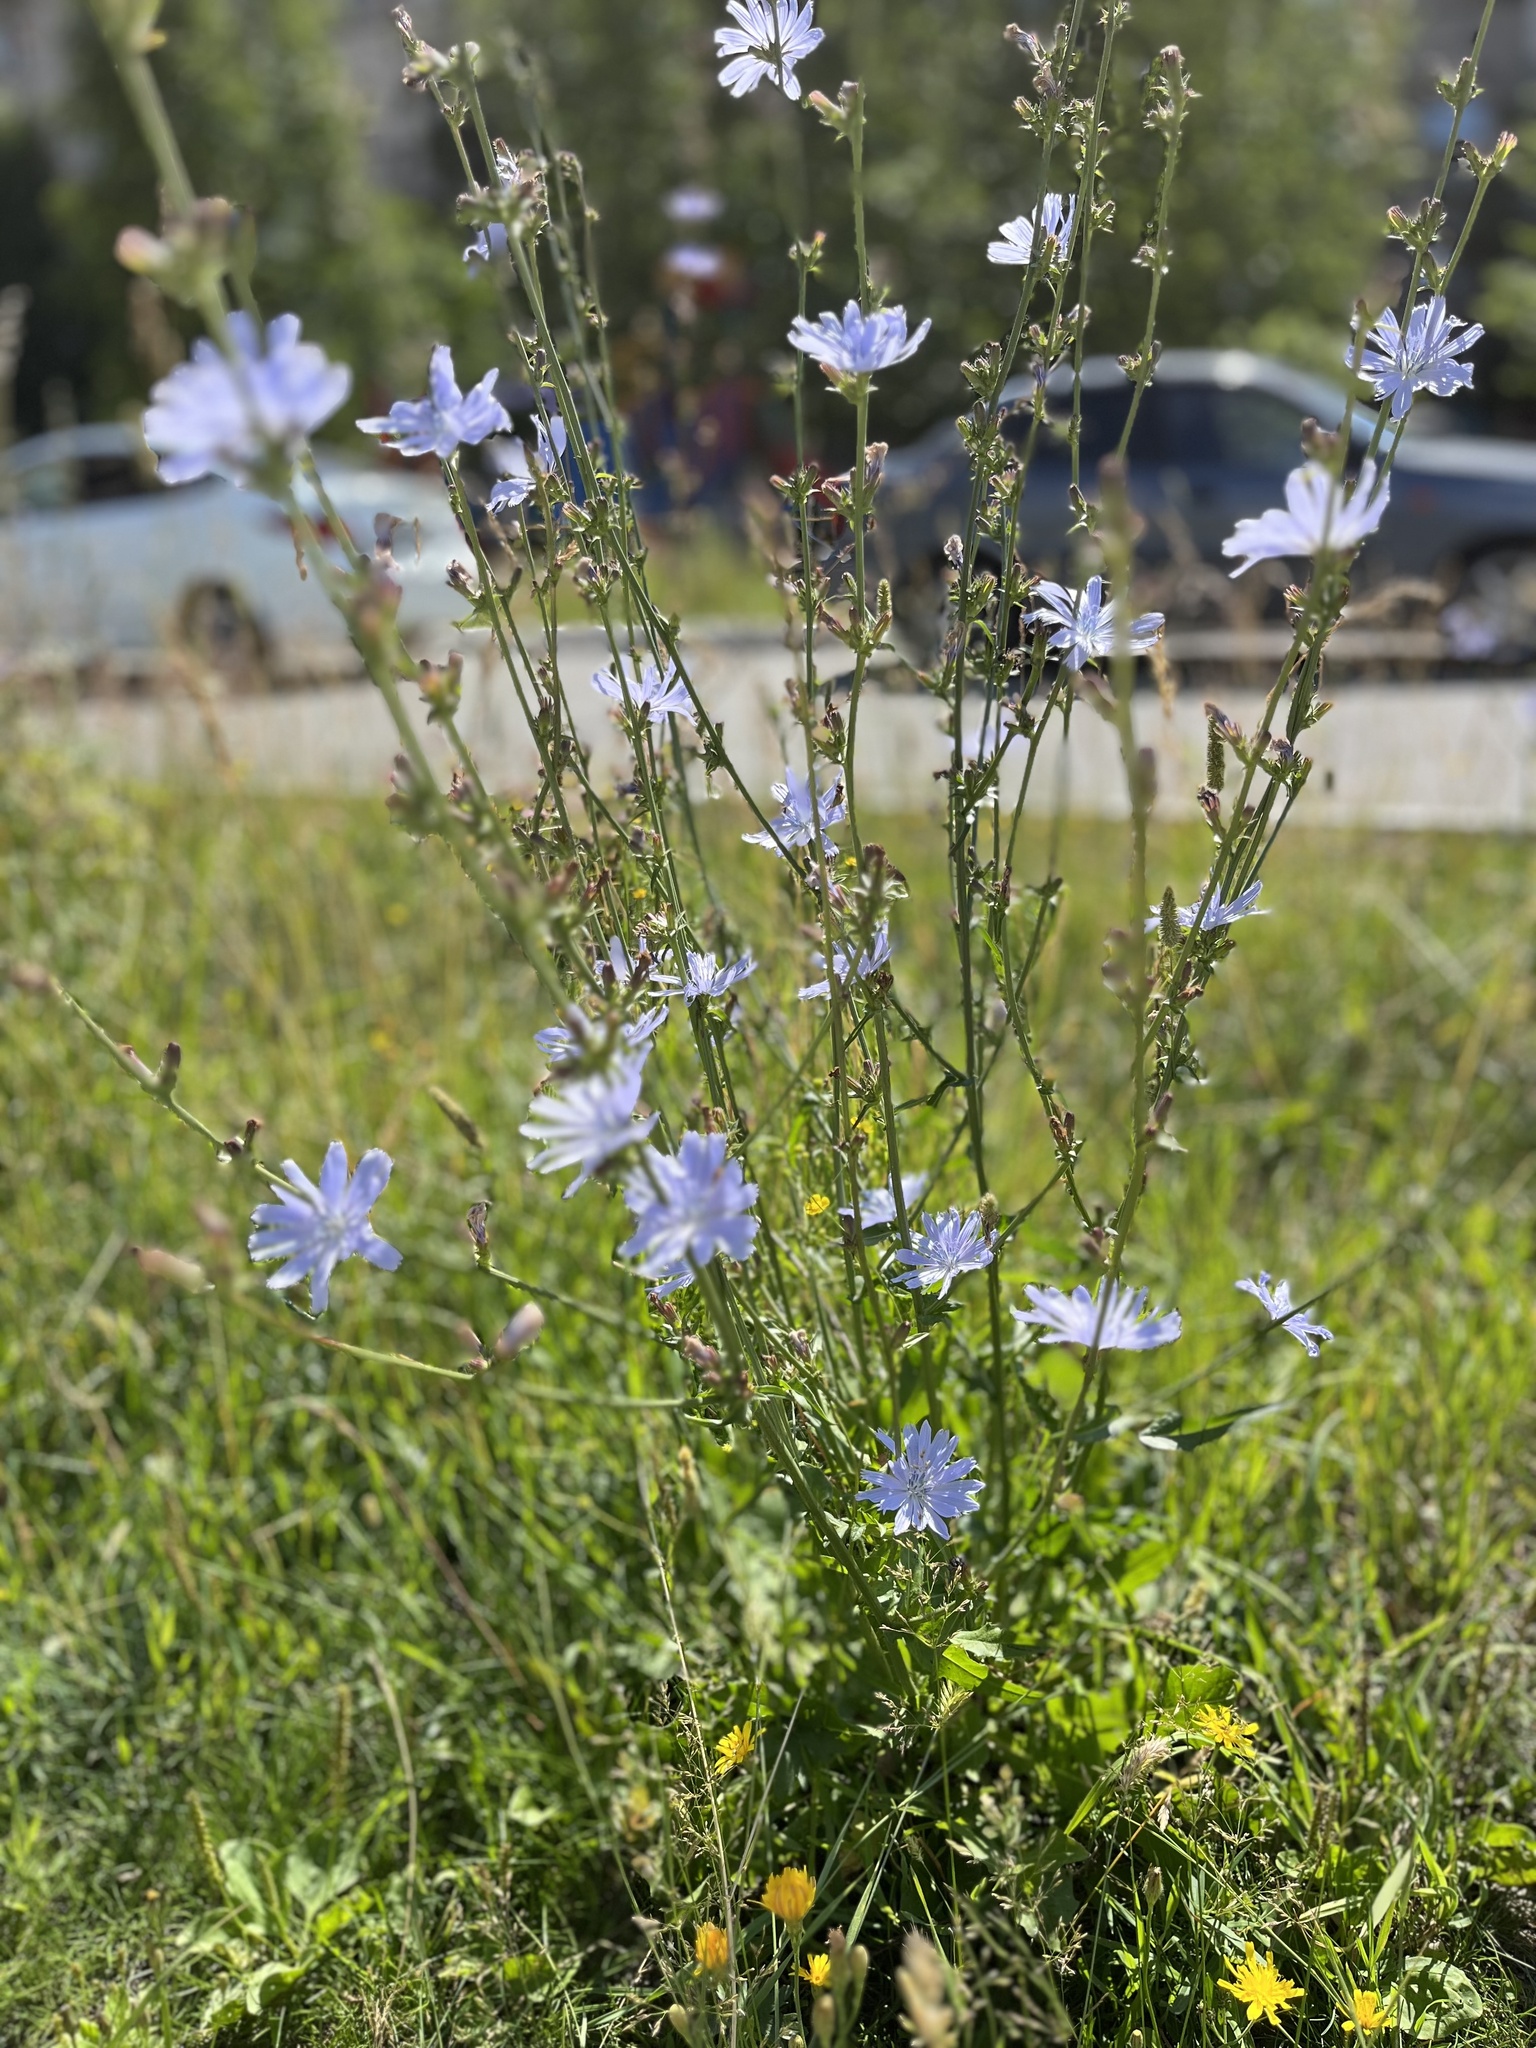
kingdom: Plantae
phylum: Tracheophyta
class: Magnoliopsida
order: Asterales
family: Asteraceae
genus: Cichorium
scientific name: Cichorium intybus
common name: Chicory
